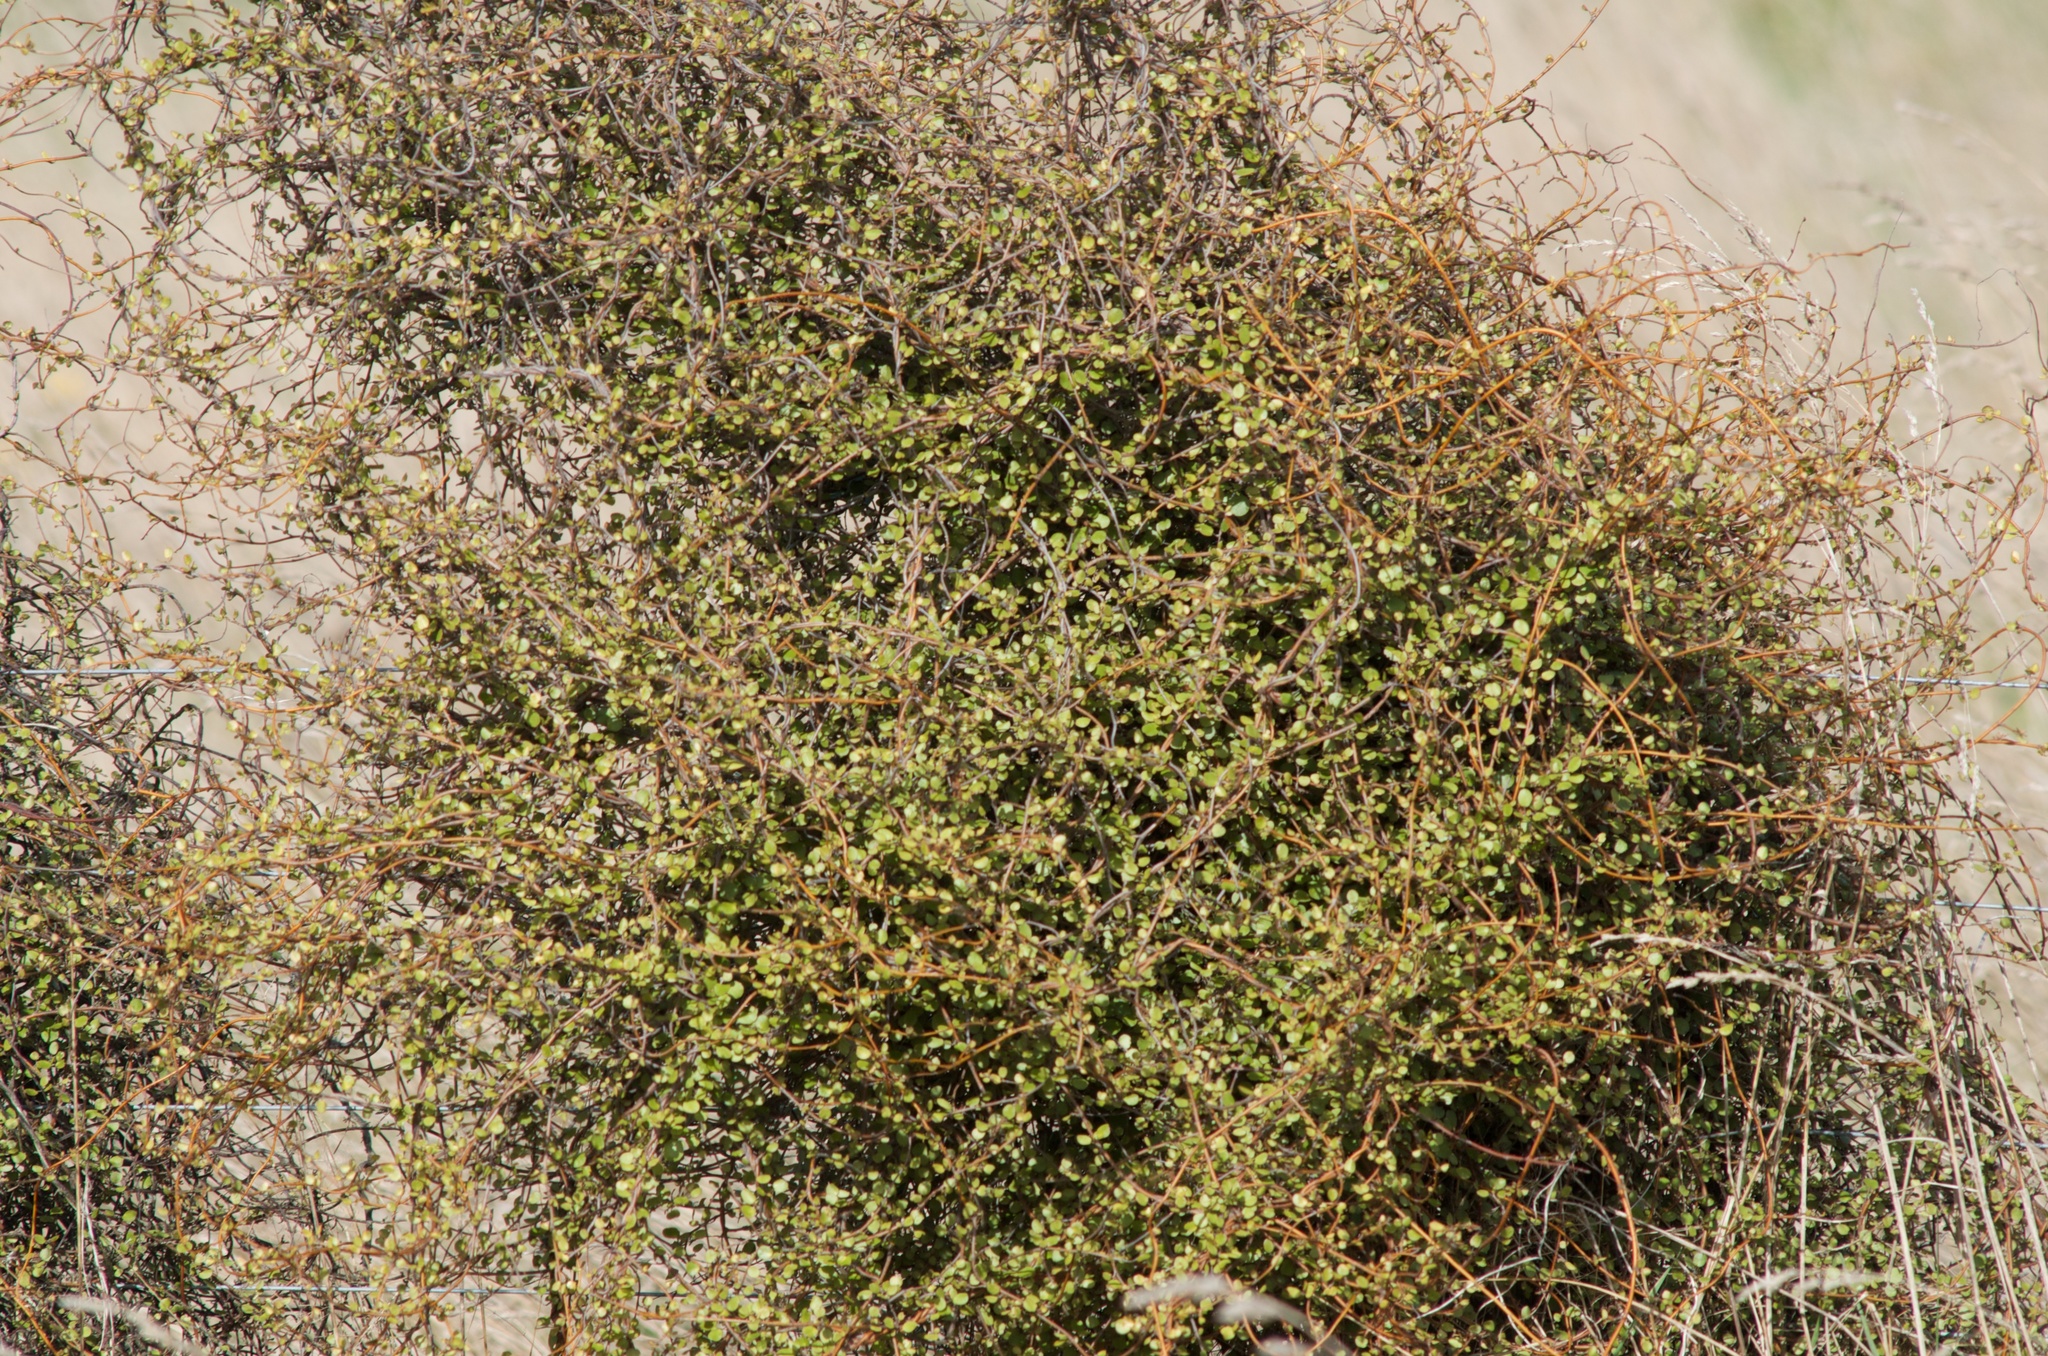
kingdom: Plantae
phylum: Tracheophyta
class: Magnoliopsida
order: Caryophyllales
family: Polygonaceae
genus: Muehlenbeckia
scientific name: Muehlenbeckia complexa
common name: Wireplant
